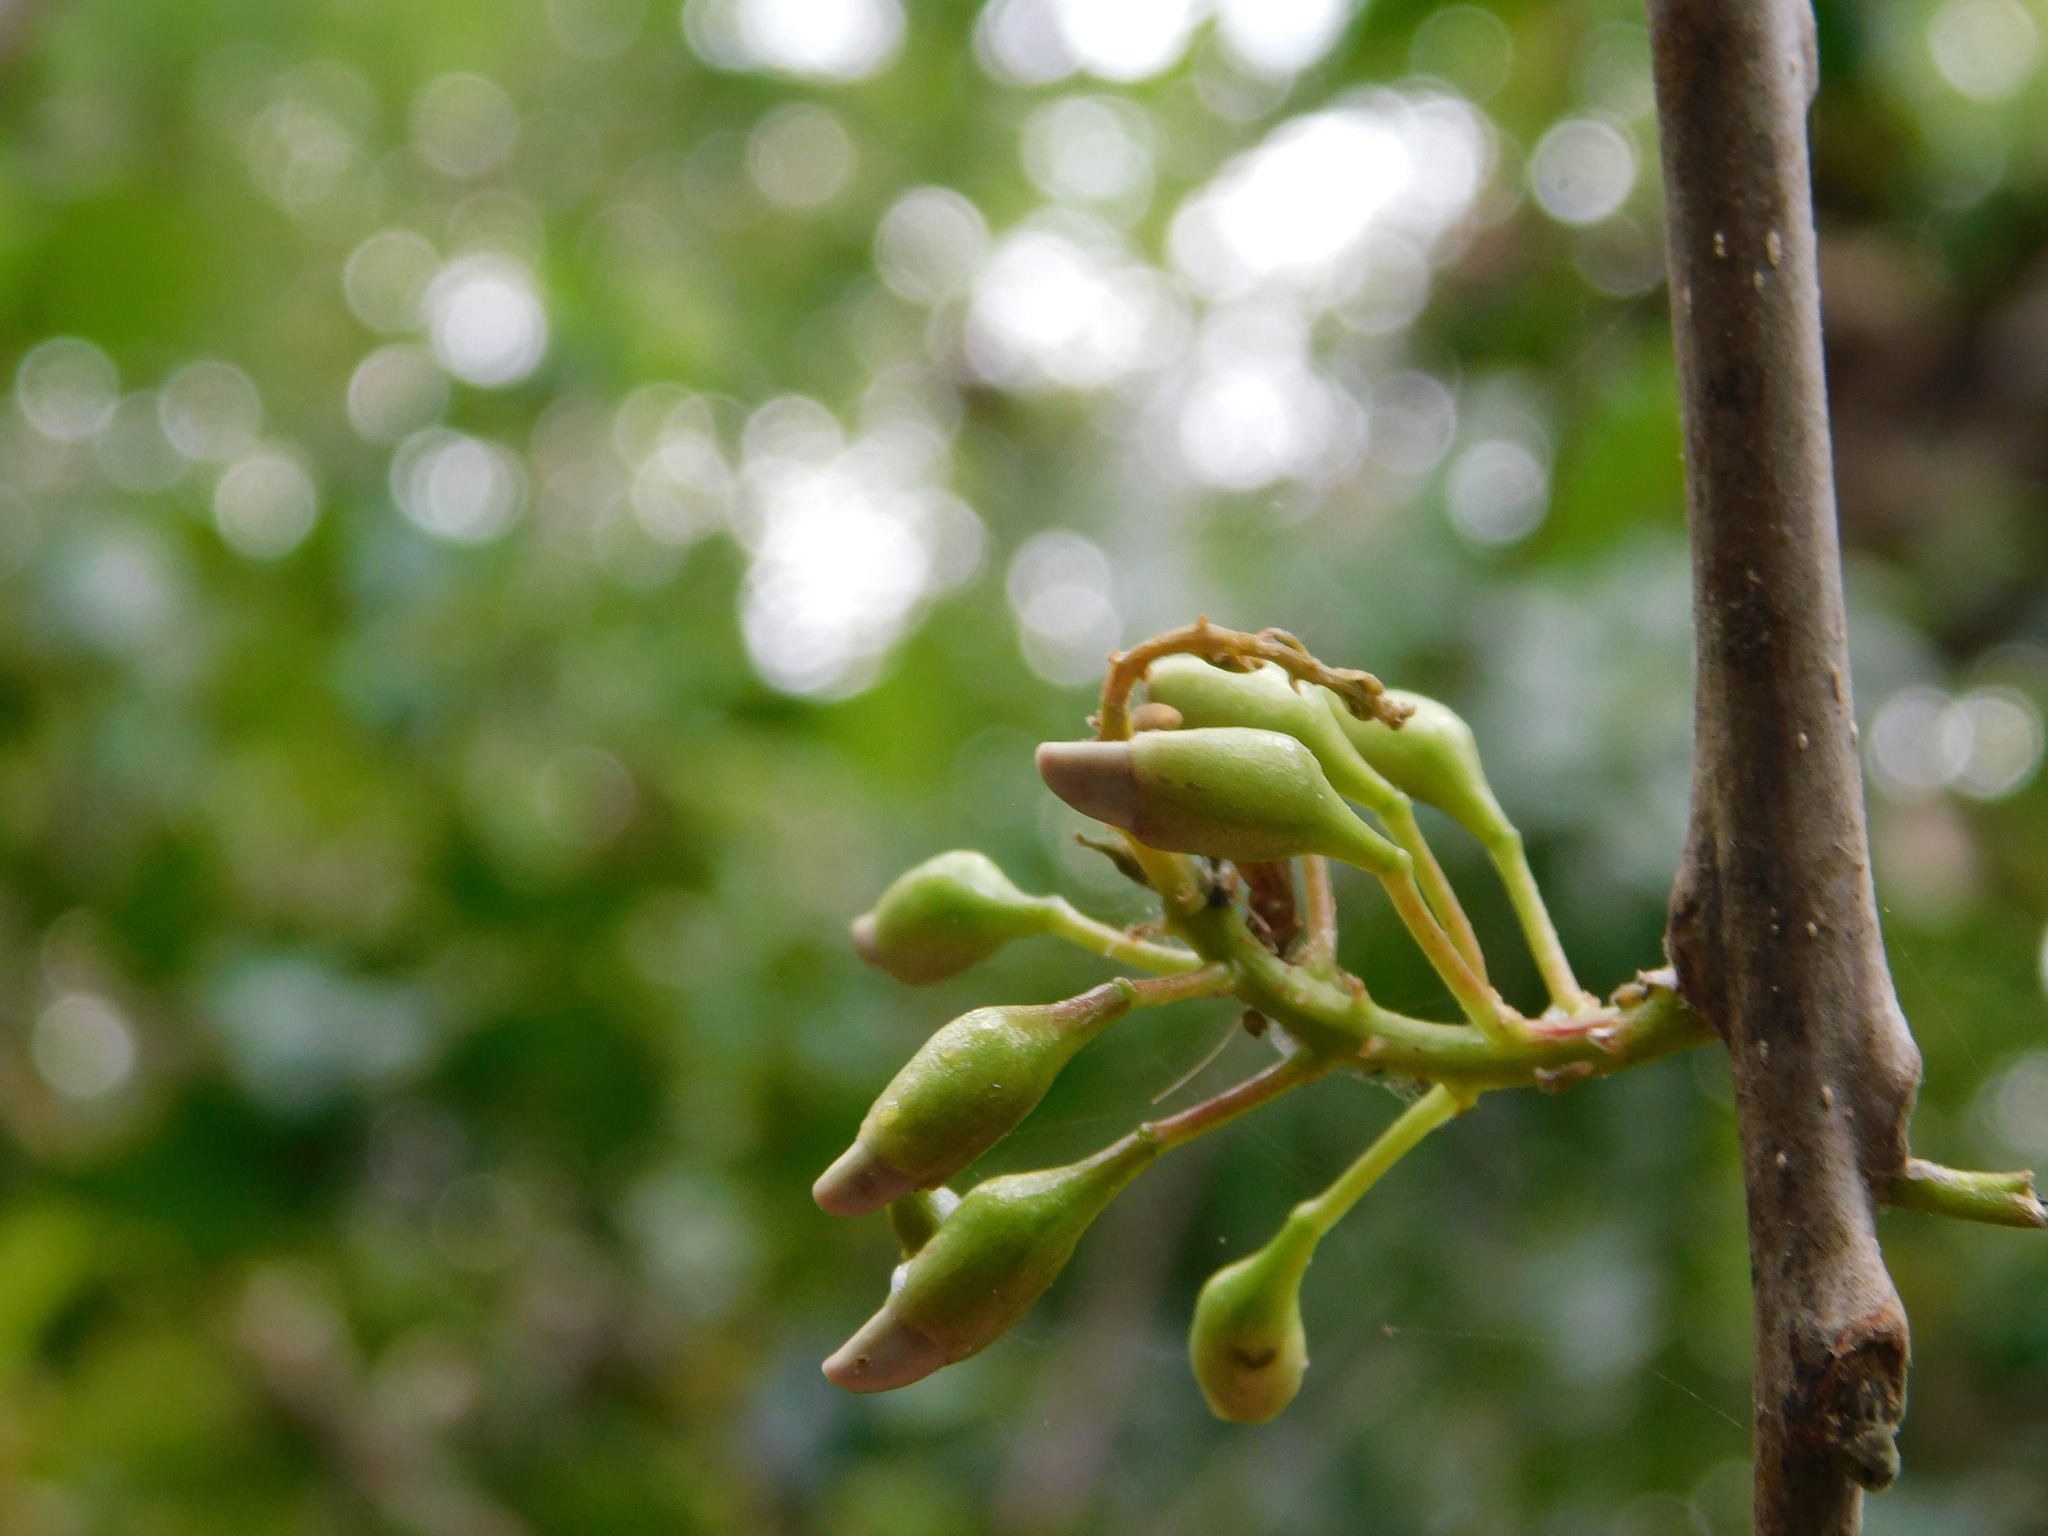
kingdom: Plantae
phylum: Tracheophyta
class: Magnoliopsida
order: Fabales
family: Fabaceae
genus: Gliricidia
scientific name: Gliricidia sepium
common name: Quickstick
